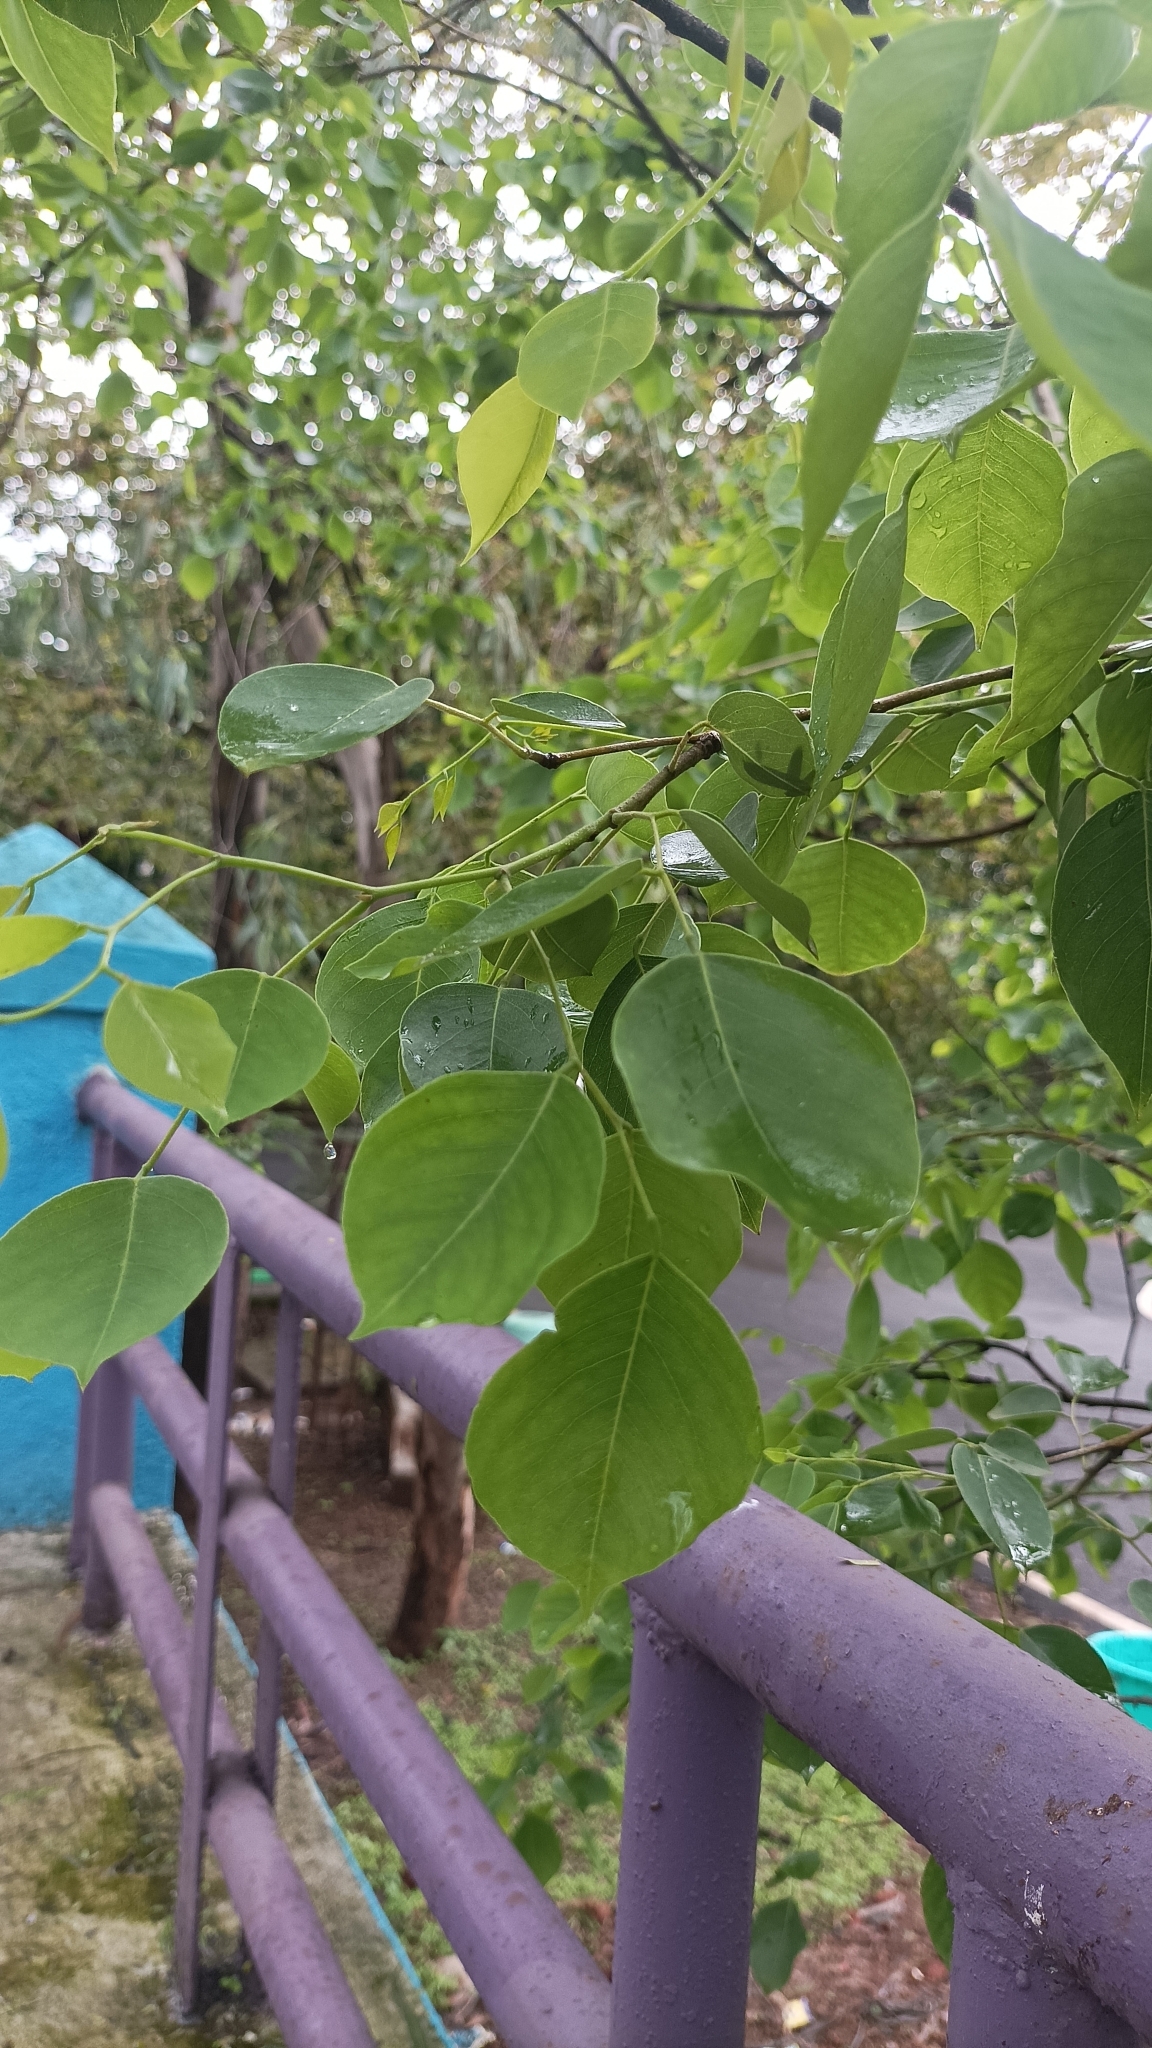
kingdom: Plantae
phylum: Tracheophyta
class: Magnoliopsida
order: Fabales
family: Fabaceae
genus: Dalbergia
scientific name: Dalbergia sissoo
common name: Indian rosewood
